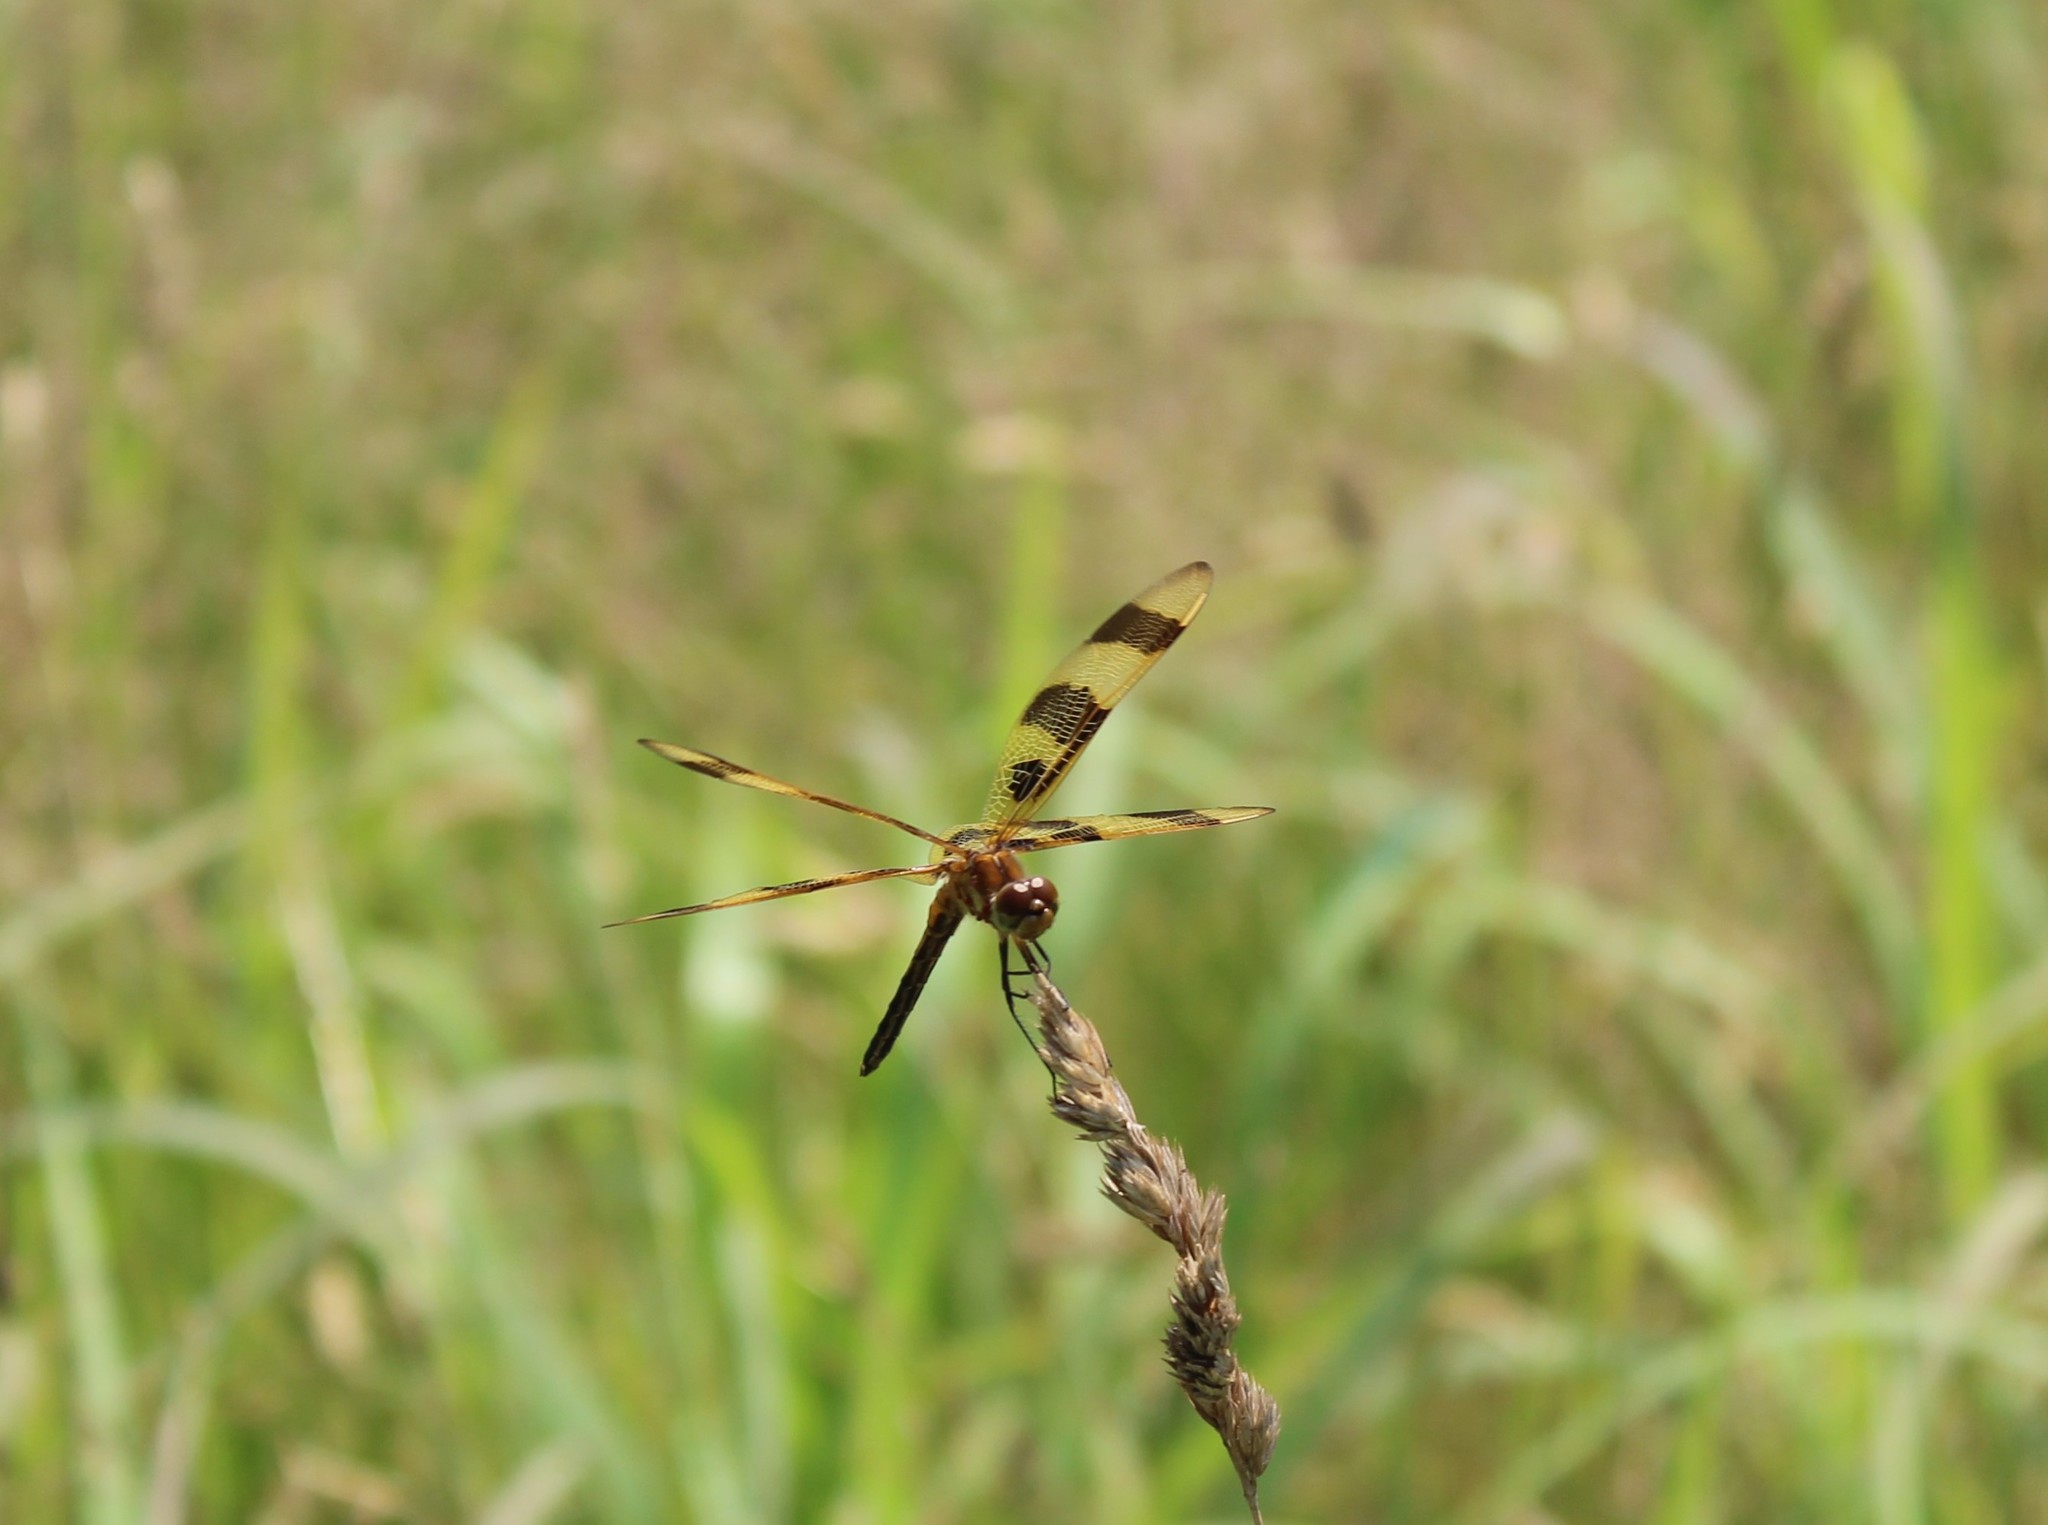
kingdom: Animalia
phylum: Arthropoda
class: Insecta
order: Odonata
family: Libellulidae
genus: Celithemis
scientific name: Celithemis eponina
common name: Halloween pennant
